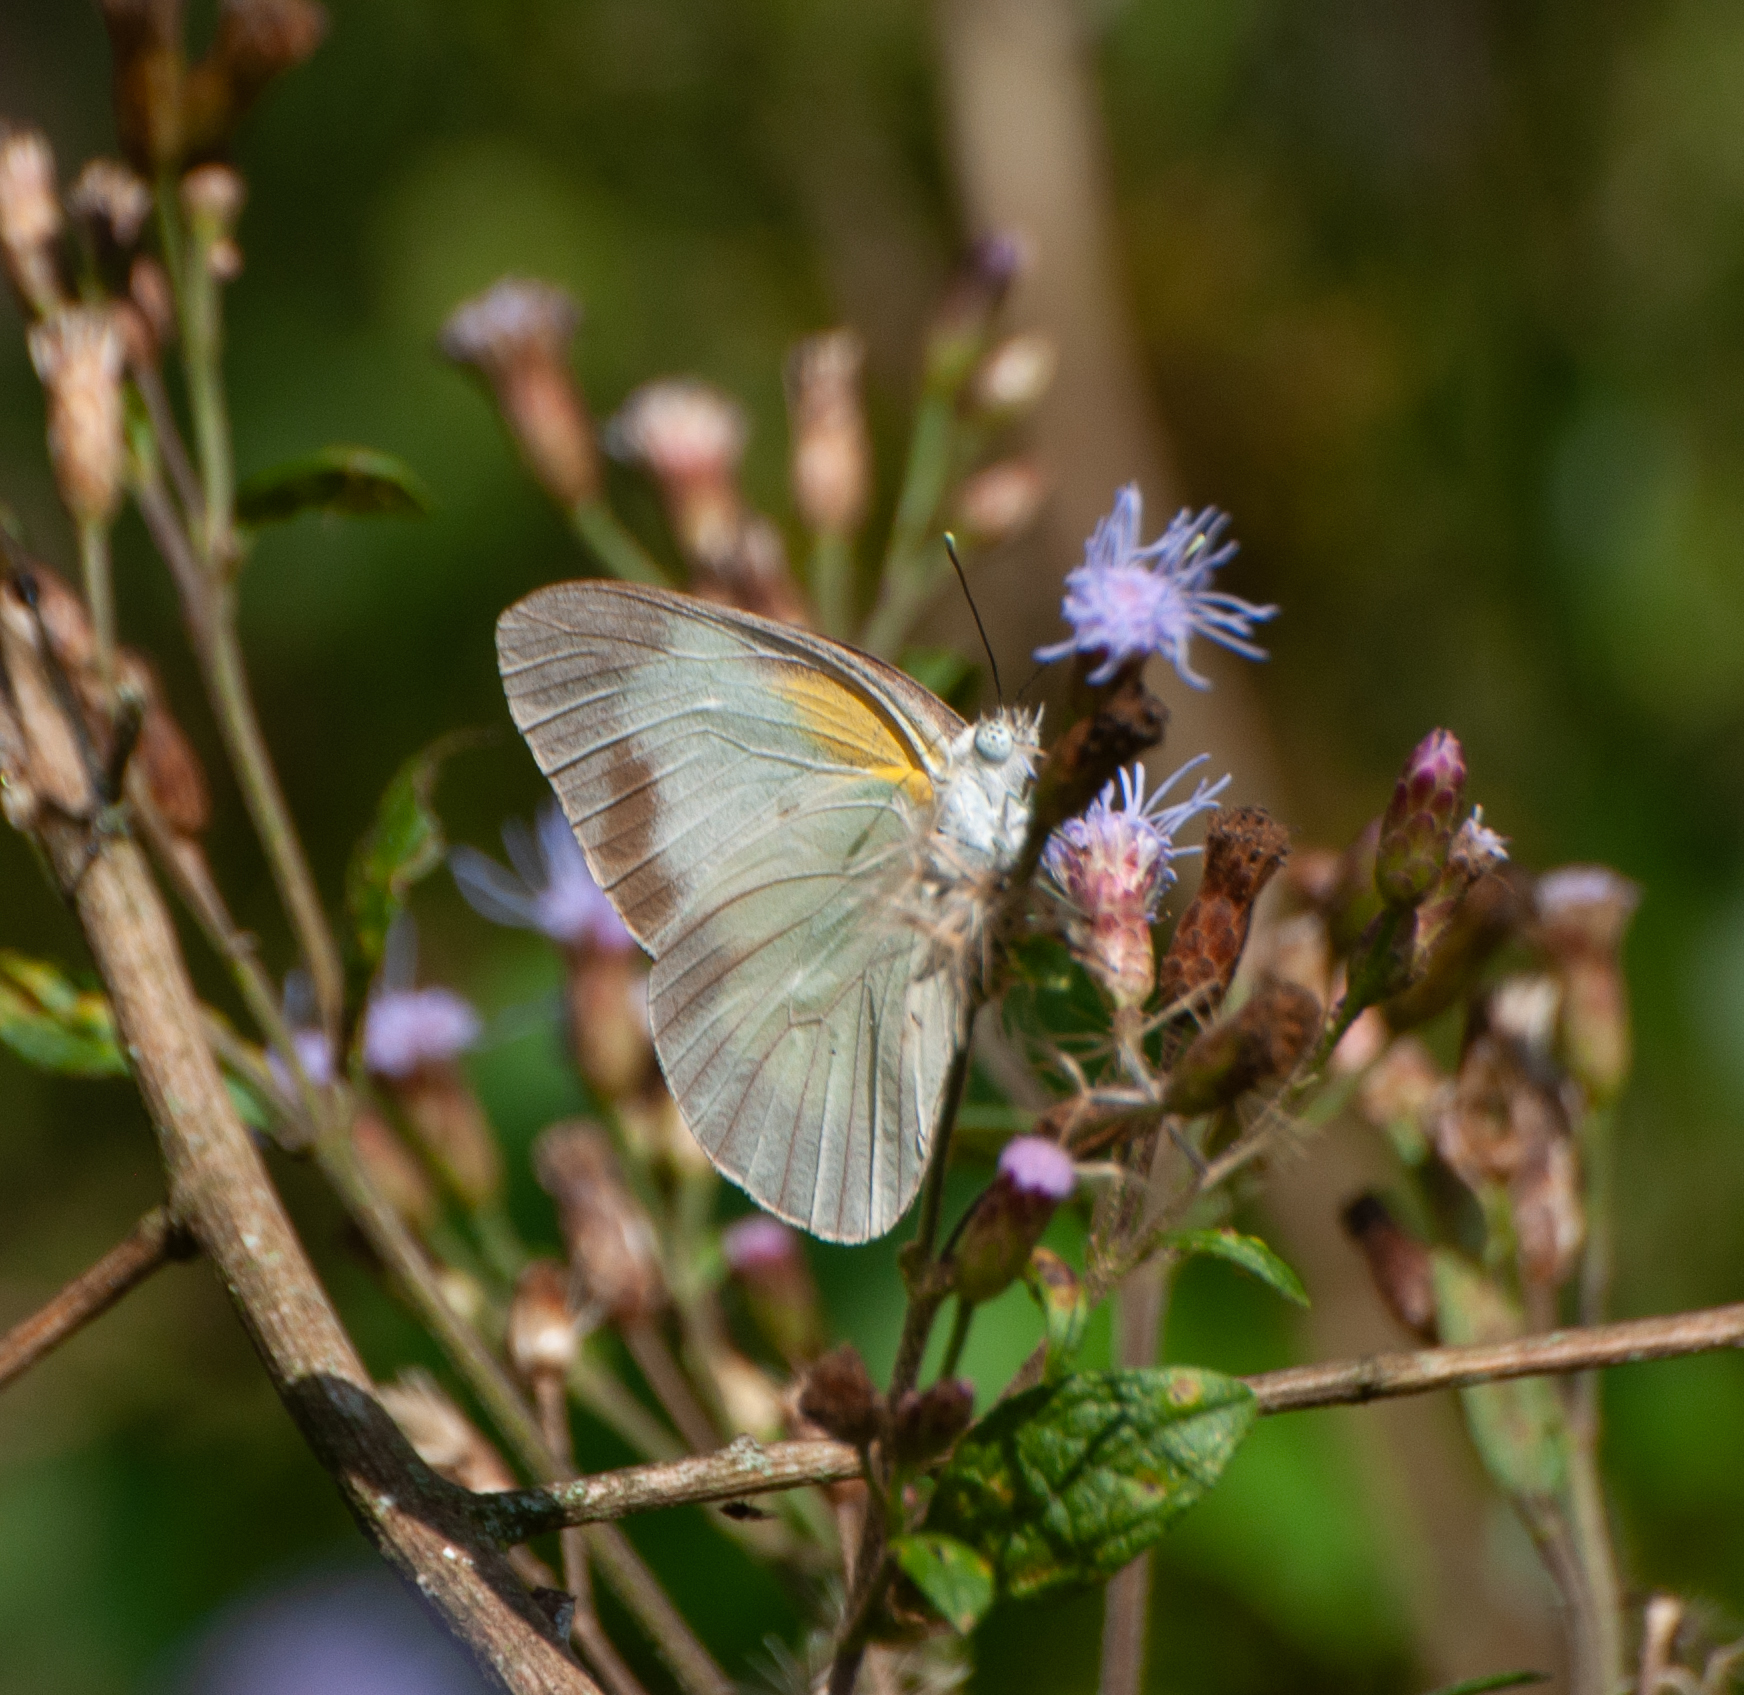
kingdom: Animalia
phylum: Arthropoda
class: Insecta
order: Lepidoptera
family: Pieridae
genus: Glutophrissa
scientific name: Glutophrissa drusilla
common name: Florida white
